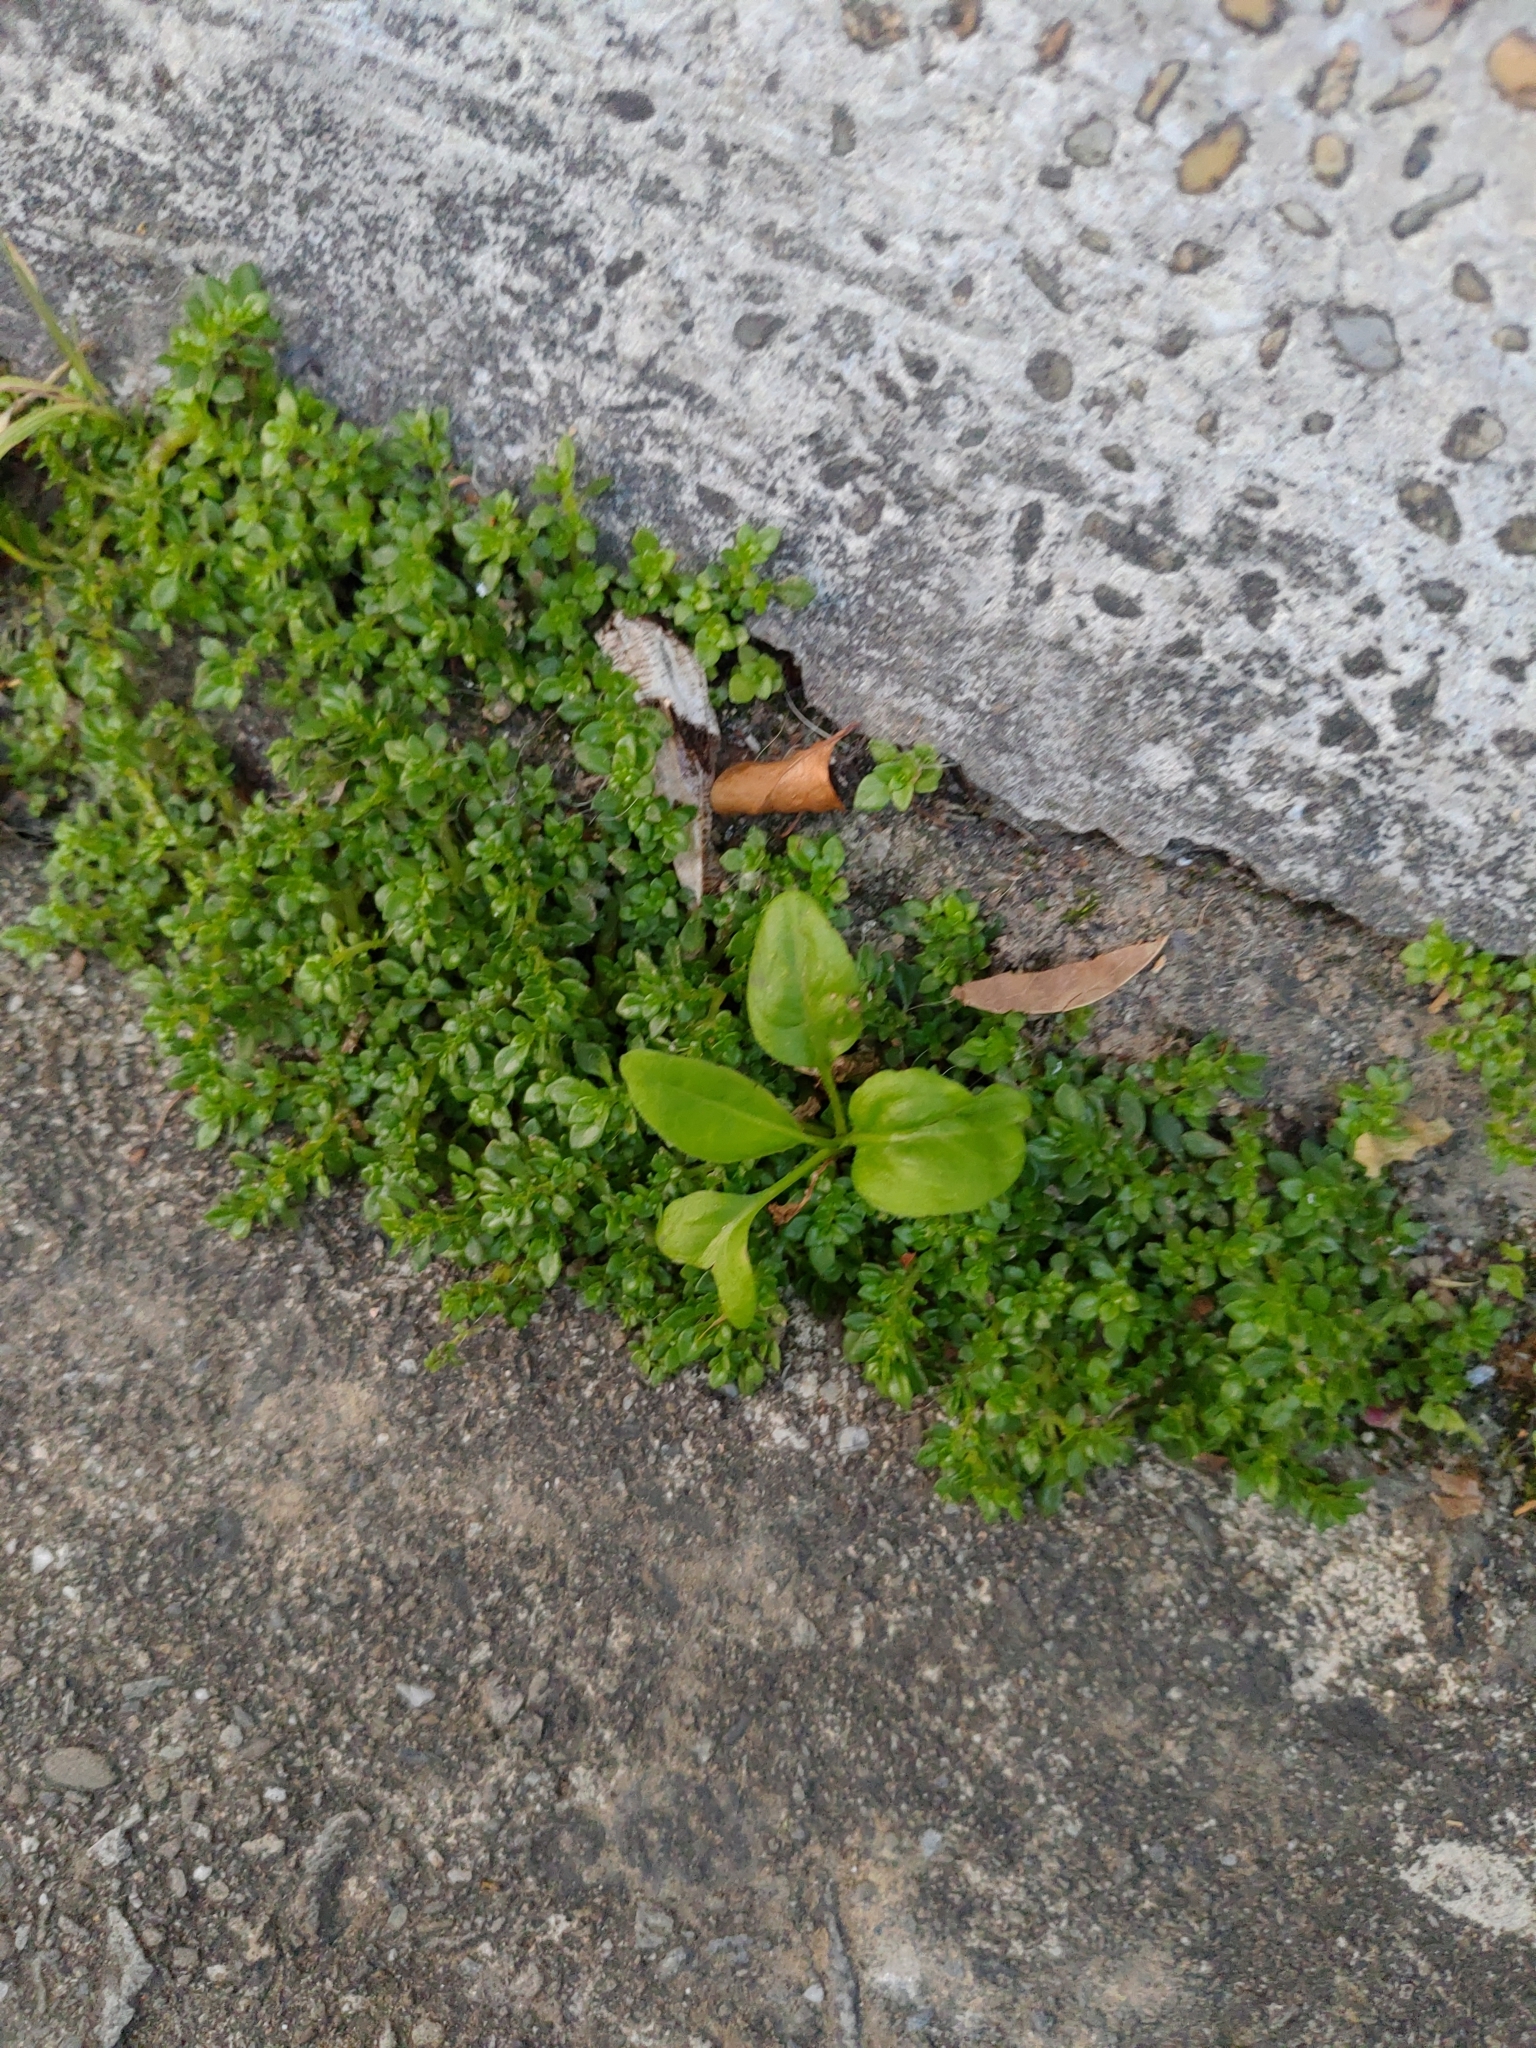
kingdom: Plantae
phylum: Tracheophyta
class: Magnoliopsida
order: Asterales
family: Asteraceae
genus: Symphyotrichum
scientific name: Symphyotrichum subulatum
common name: Annual saltmarsh aster
